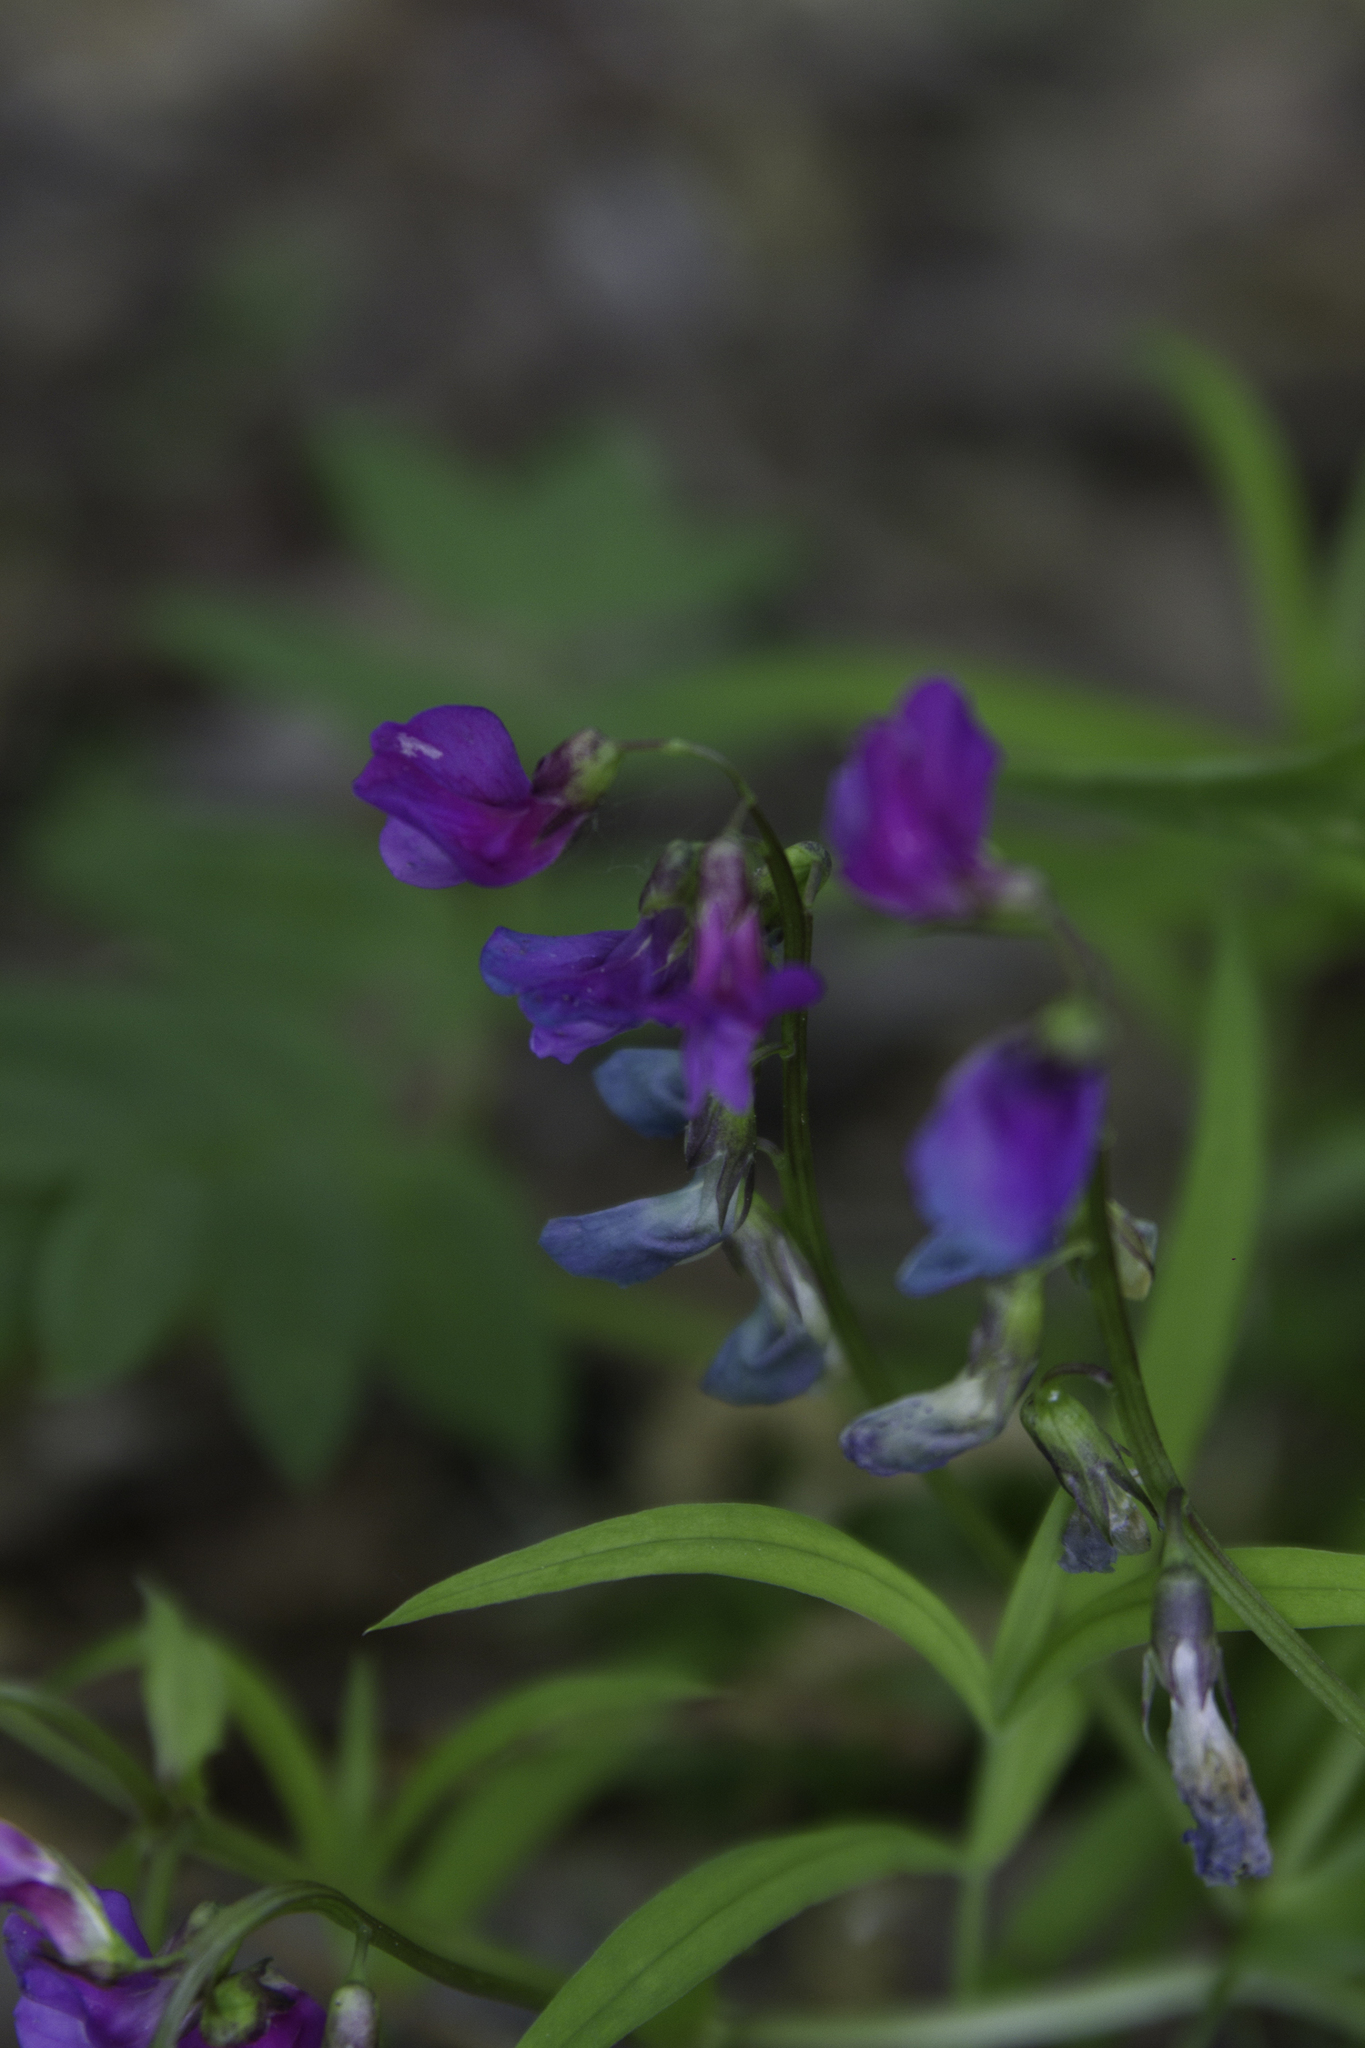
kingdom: Plantae
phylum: Tracheophyta
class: Magnoliopsida
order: Fabales
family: Fabaceae
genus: Lathyrus
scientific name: Lathyrus vernus
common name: Spring pea
